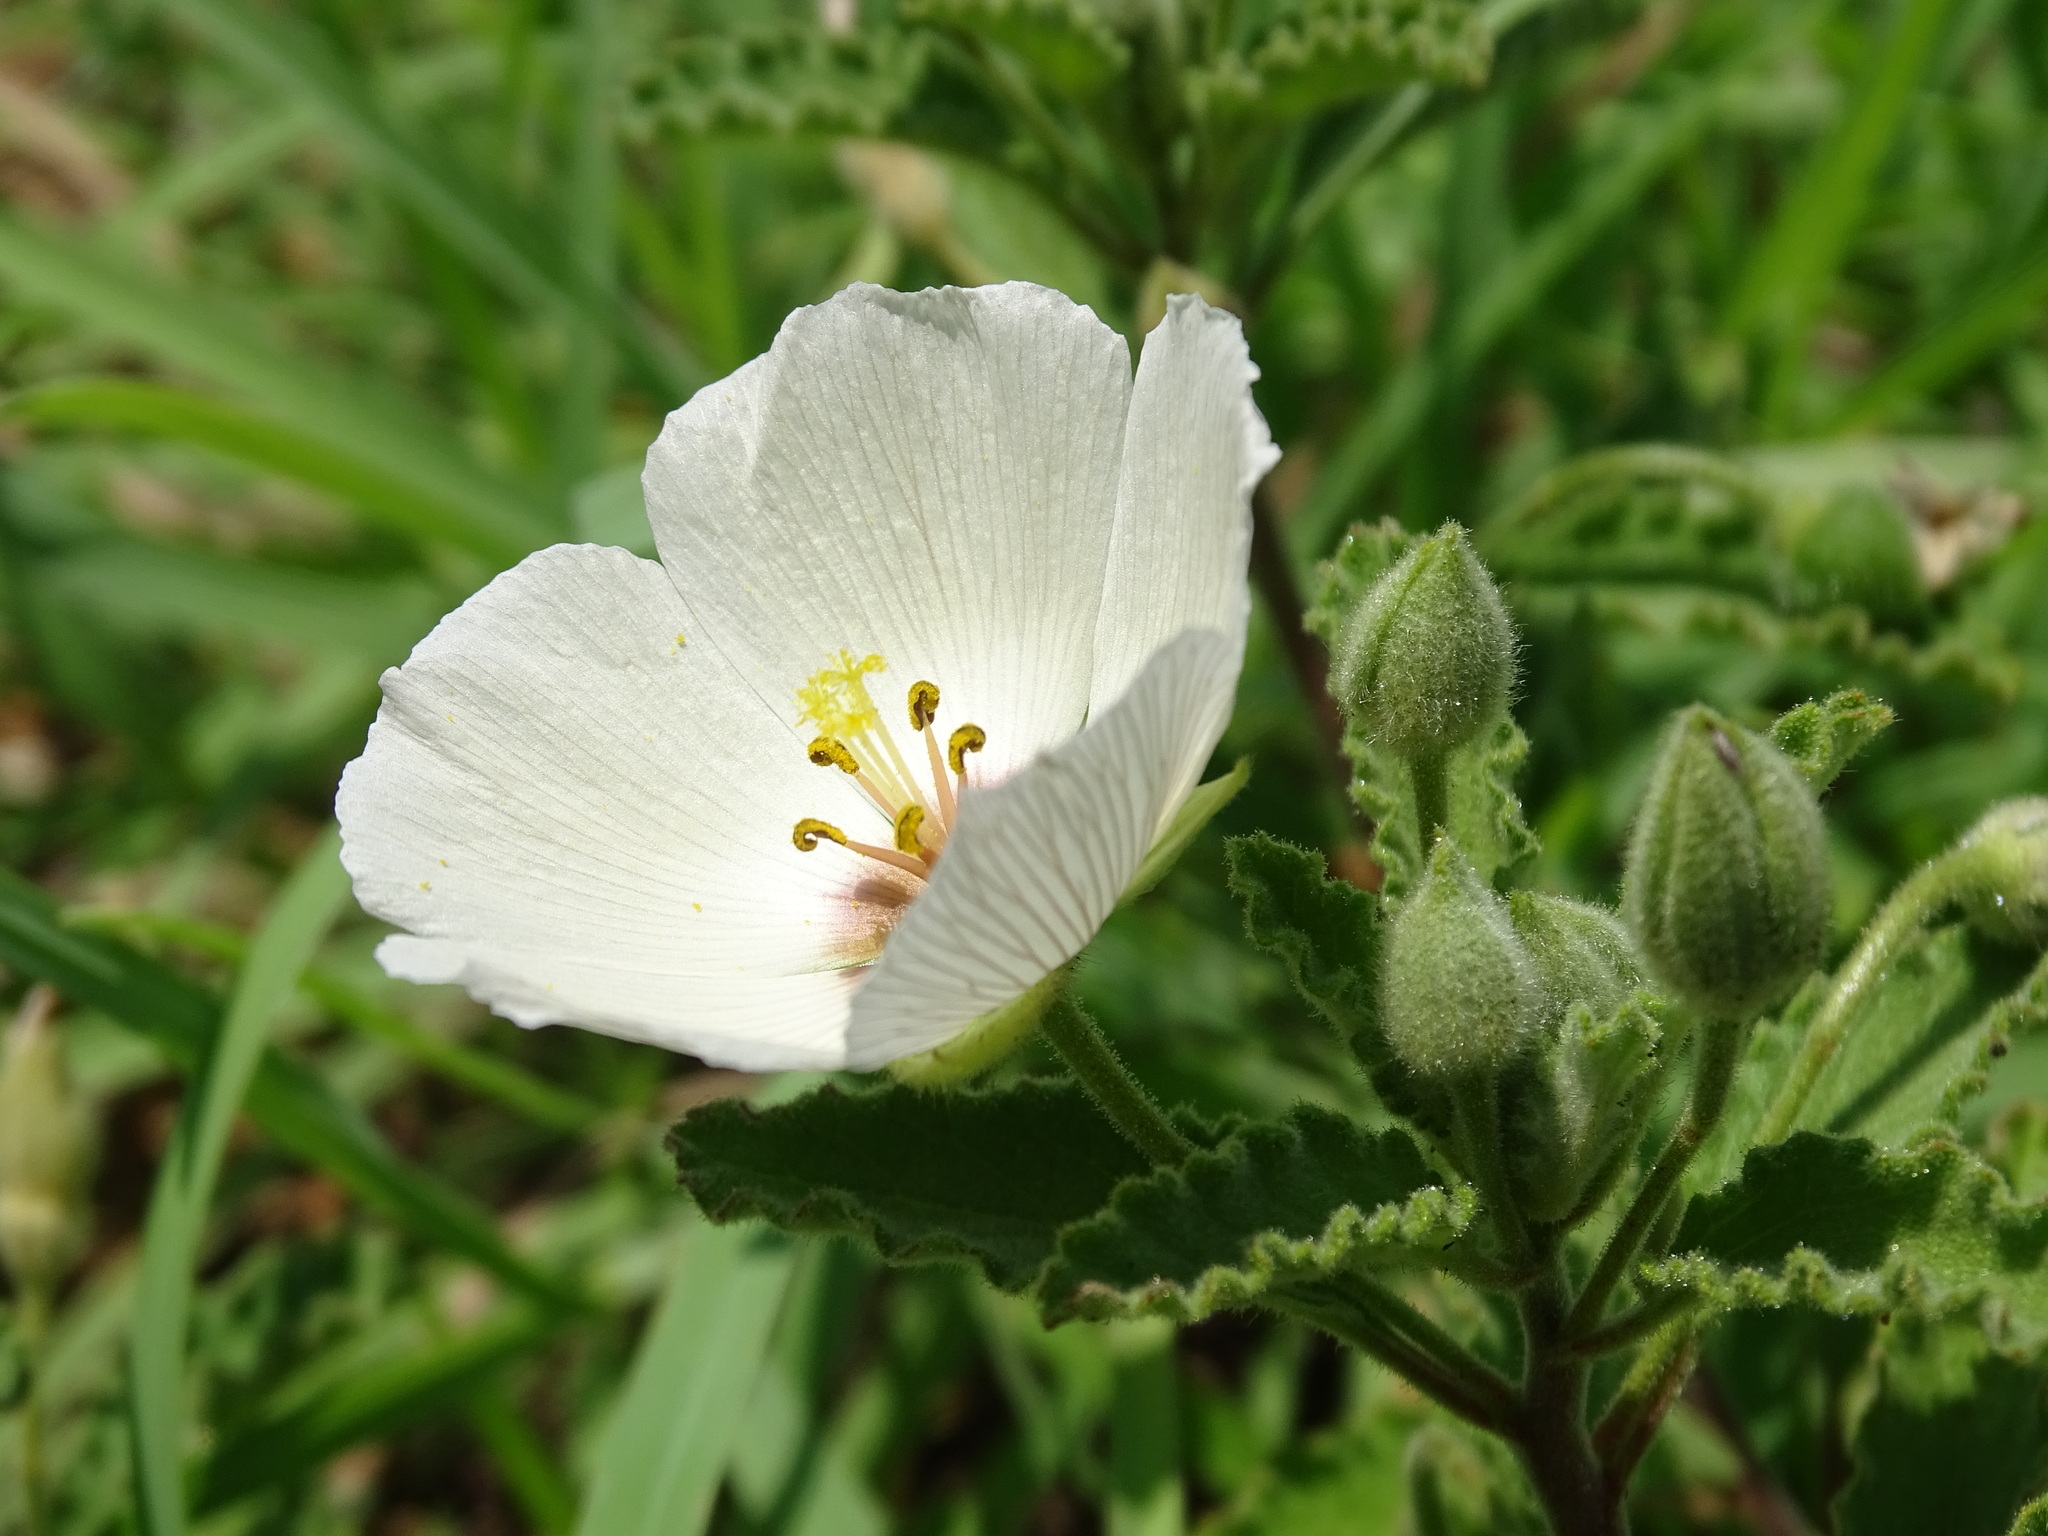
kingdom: Plantae
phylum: Tracheophyta
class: Magnoliopsida
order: Malpighiales
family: Turneraceae
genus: Piriqueta
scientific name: Piriqueta mortonii
